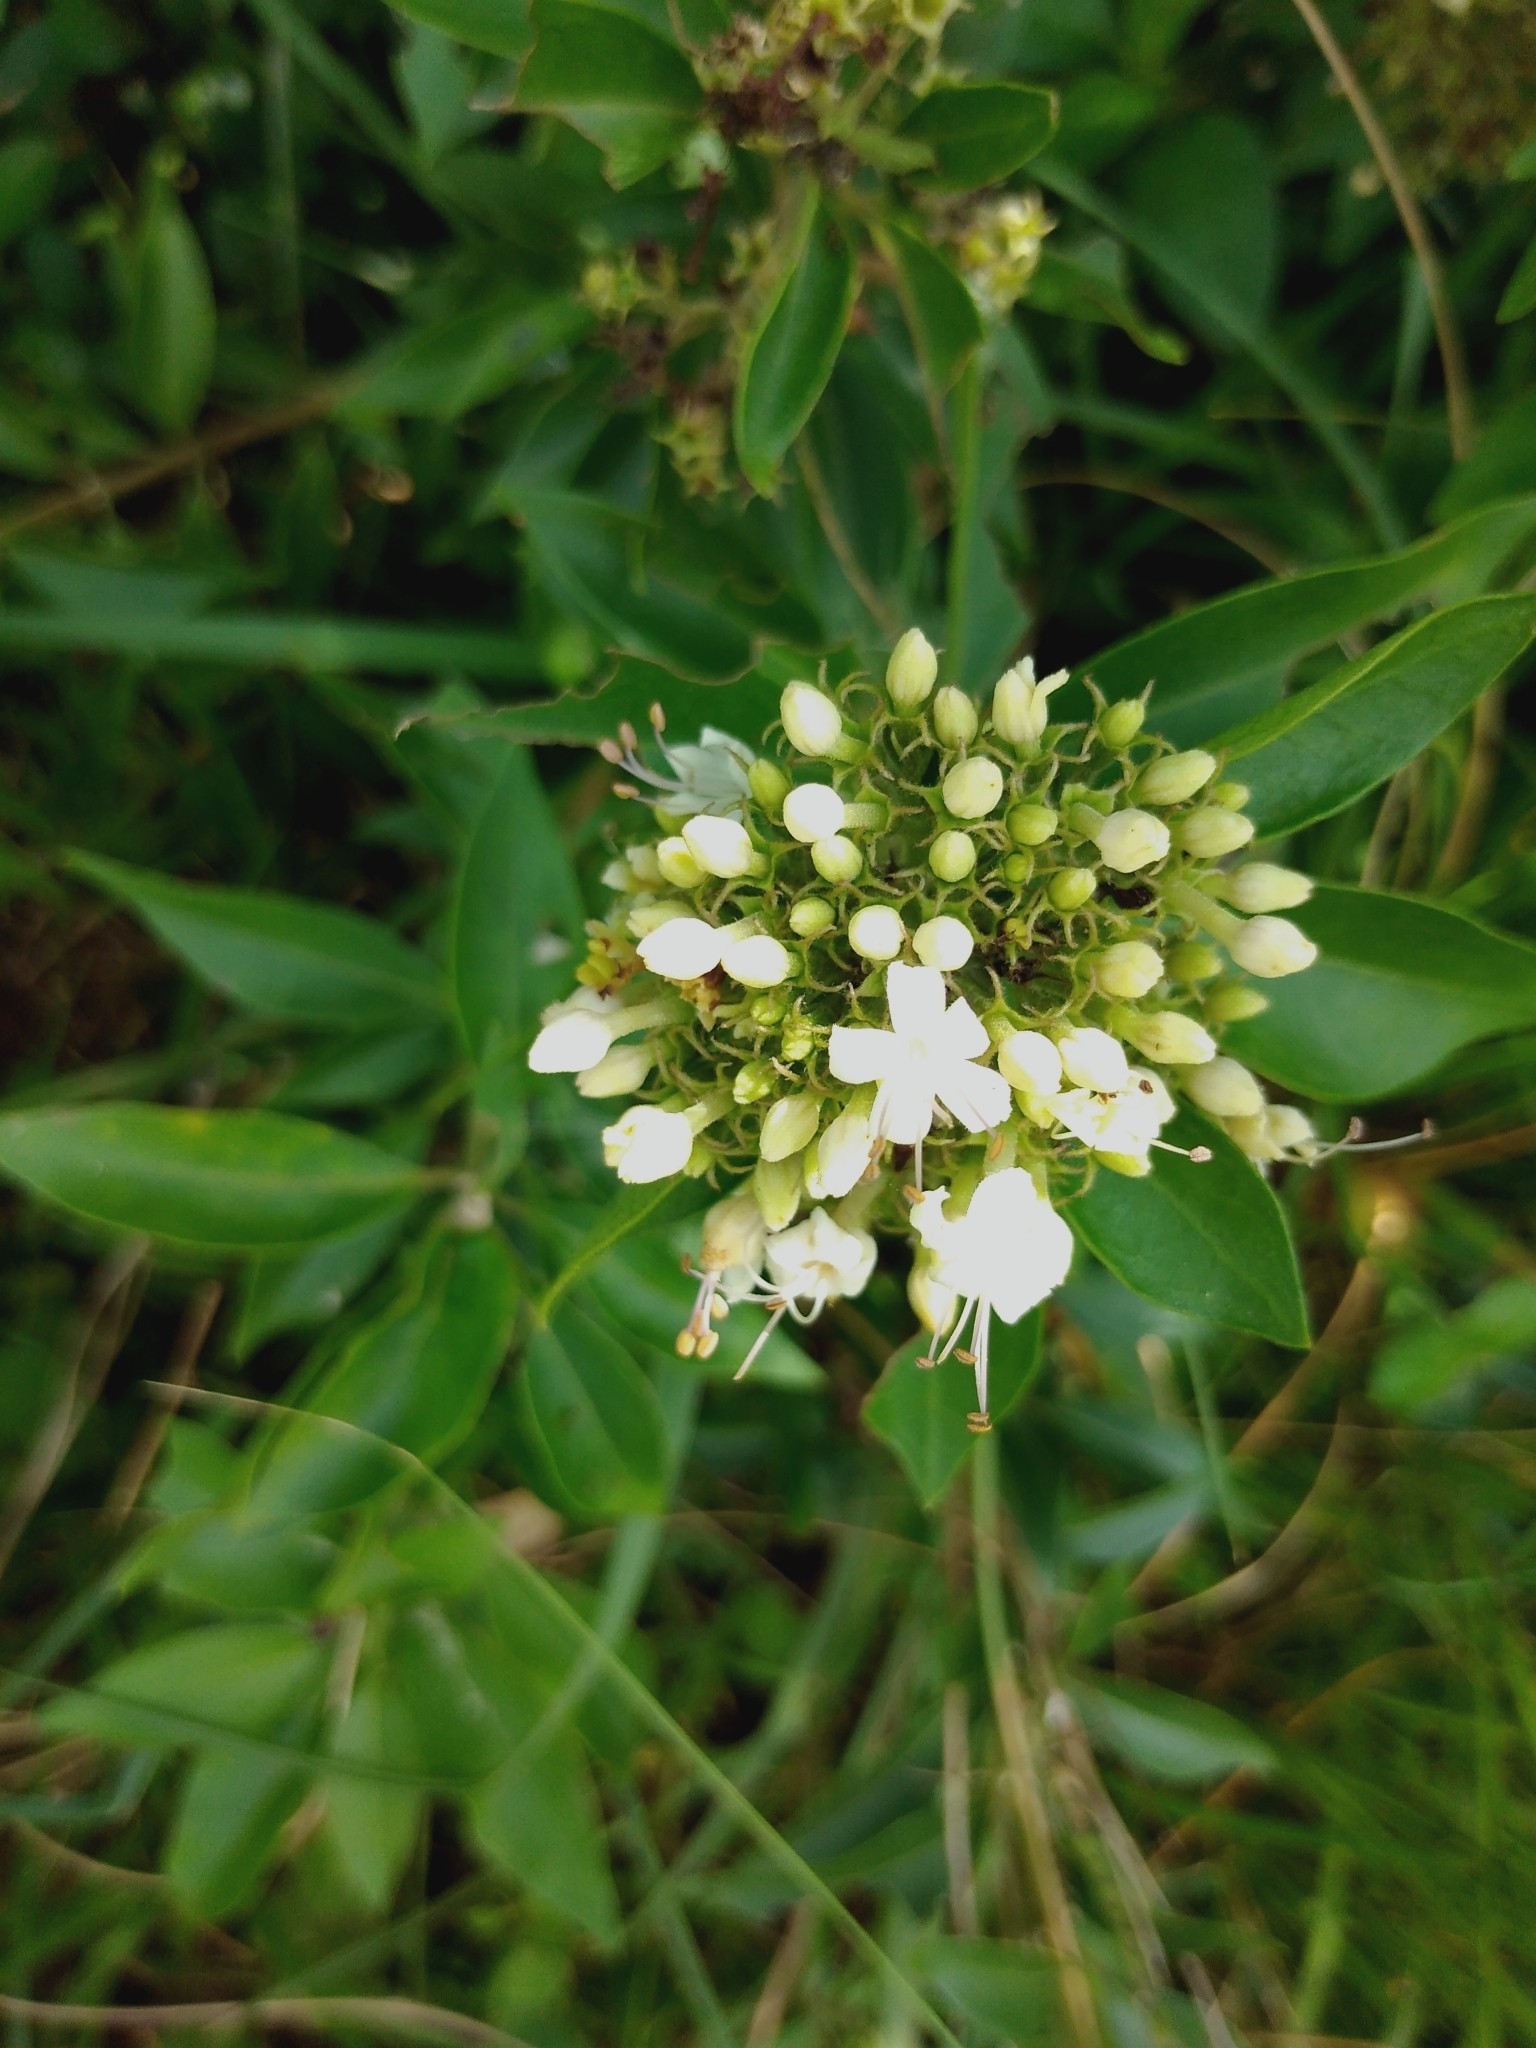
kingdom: Plantae
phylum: Tracheophyta
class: Magnoliopsida
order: Lamiales
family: Lamiaceae
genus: Volkameria
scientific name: Volkameria glabra
